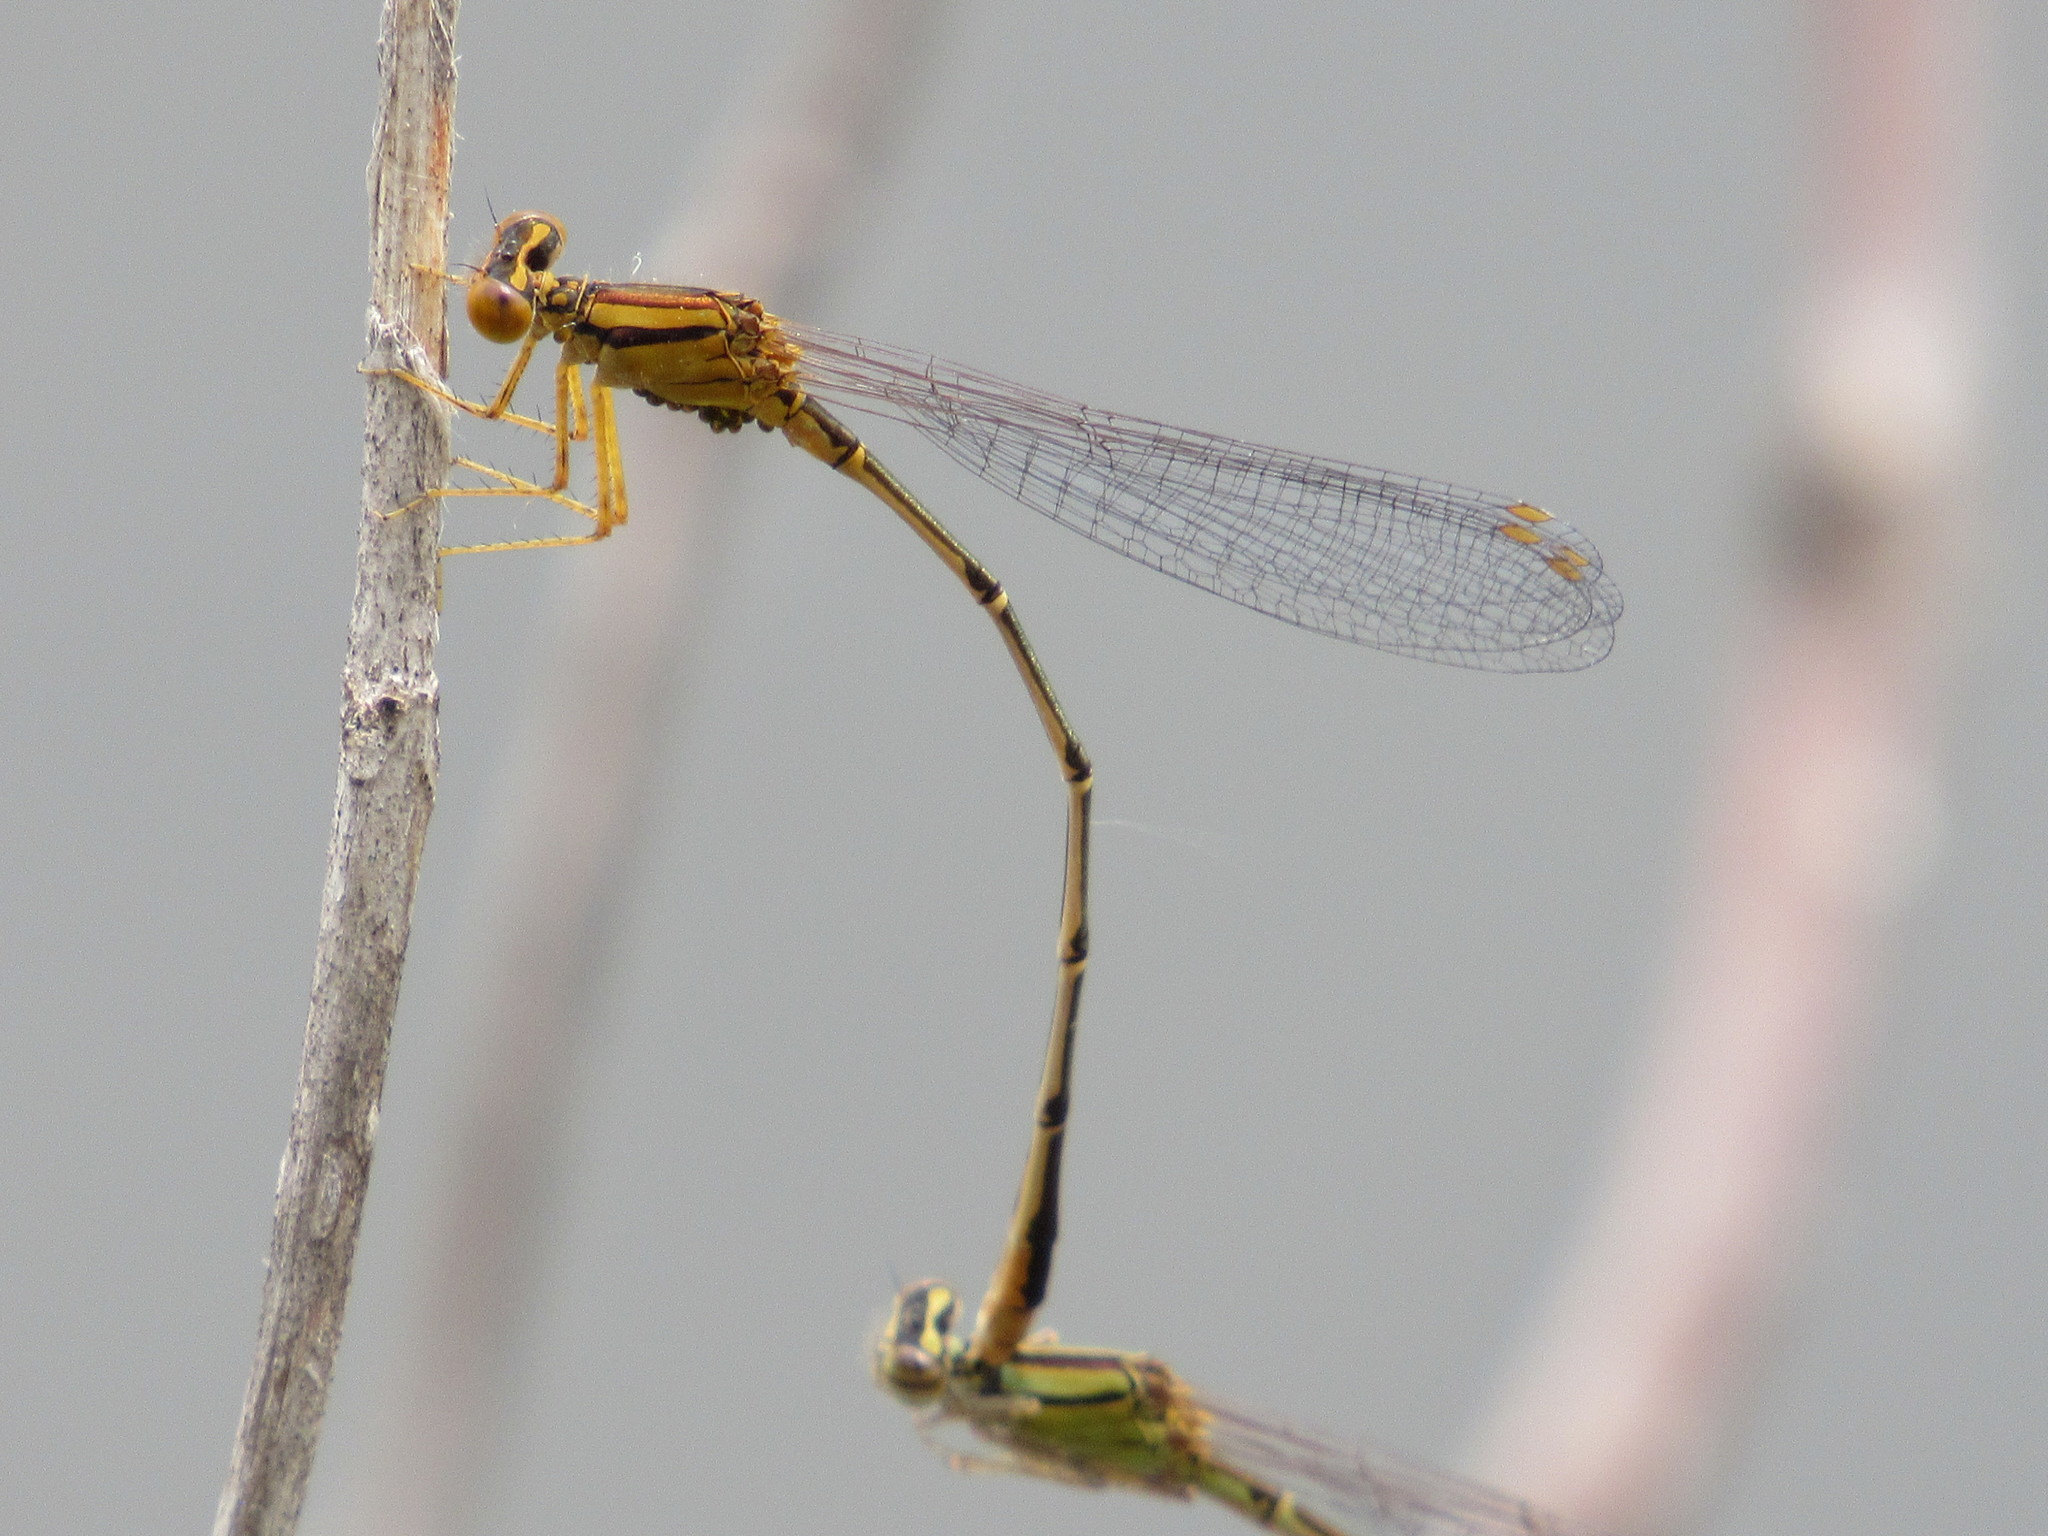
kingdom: Animalia
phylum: Arthropoda
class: Insecta
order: Odonata
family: Coenagrionidae
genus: Enallagma
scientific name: Enallagma signatum
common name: Orange bluet
